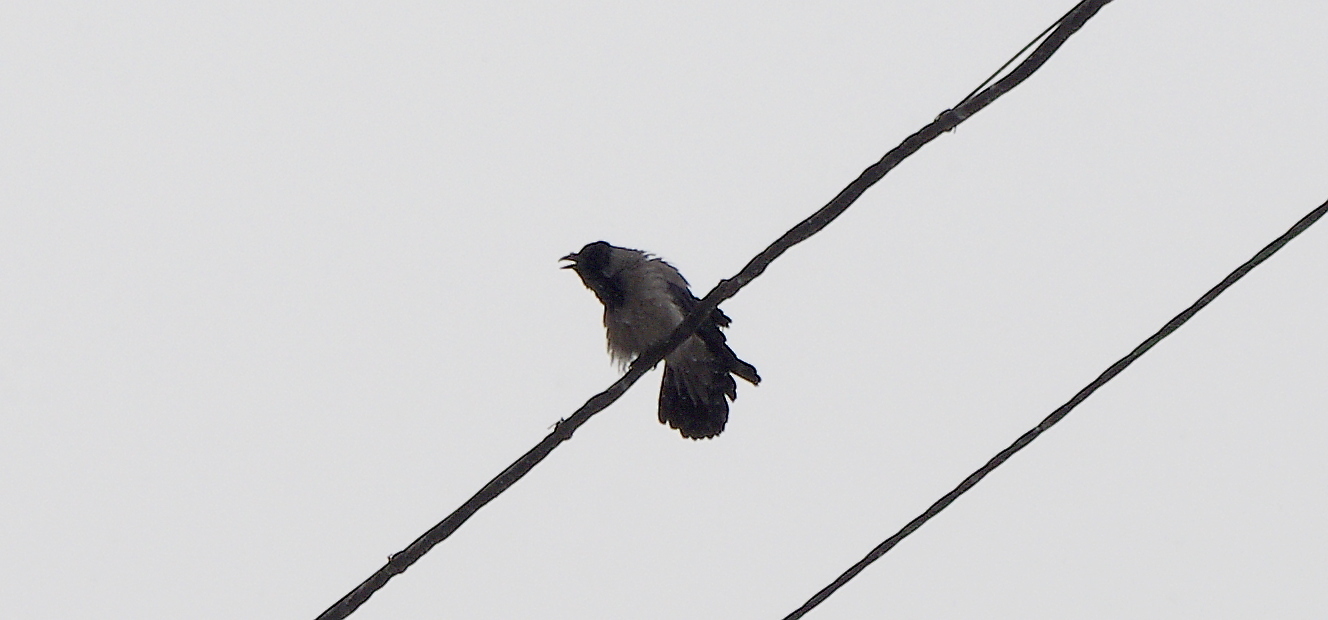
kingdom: Animalia
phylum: Chordata
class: Aves
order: Passeriformes
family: Corvidae
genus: Corvus
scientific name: Corvus cornix
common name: Hooded crow
